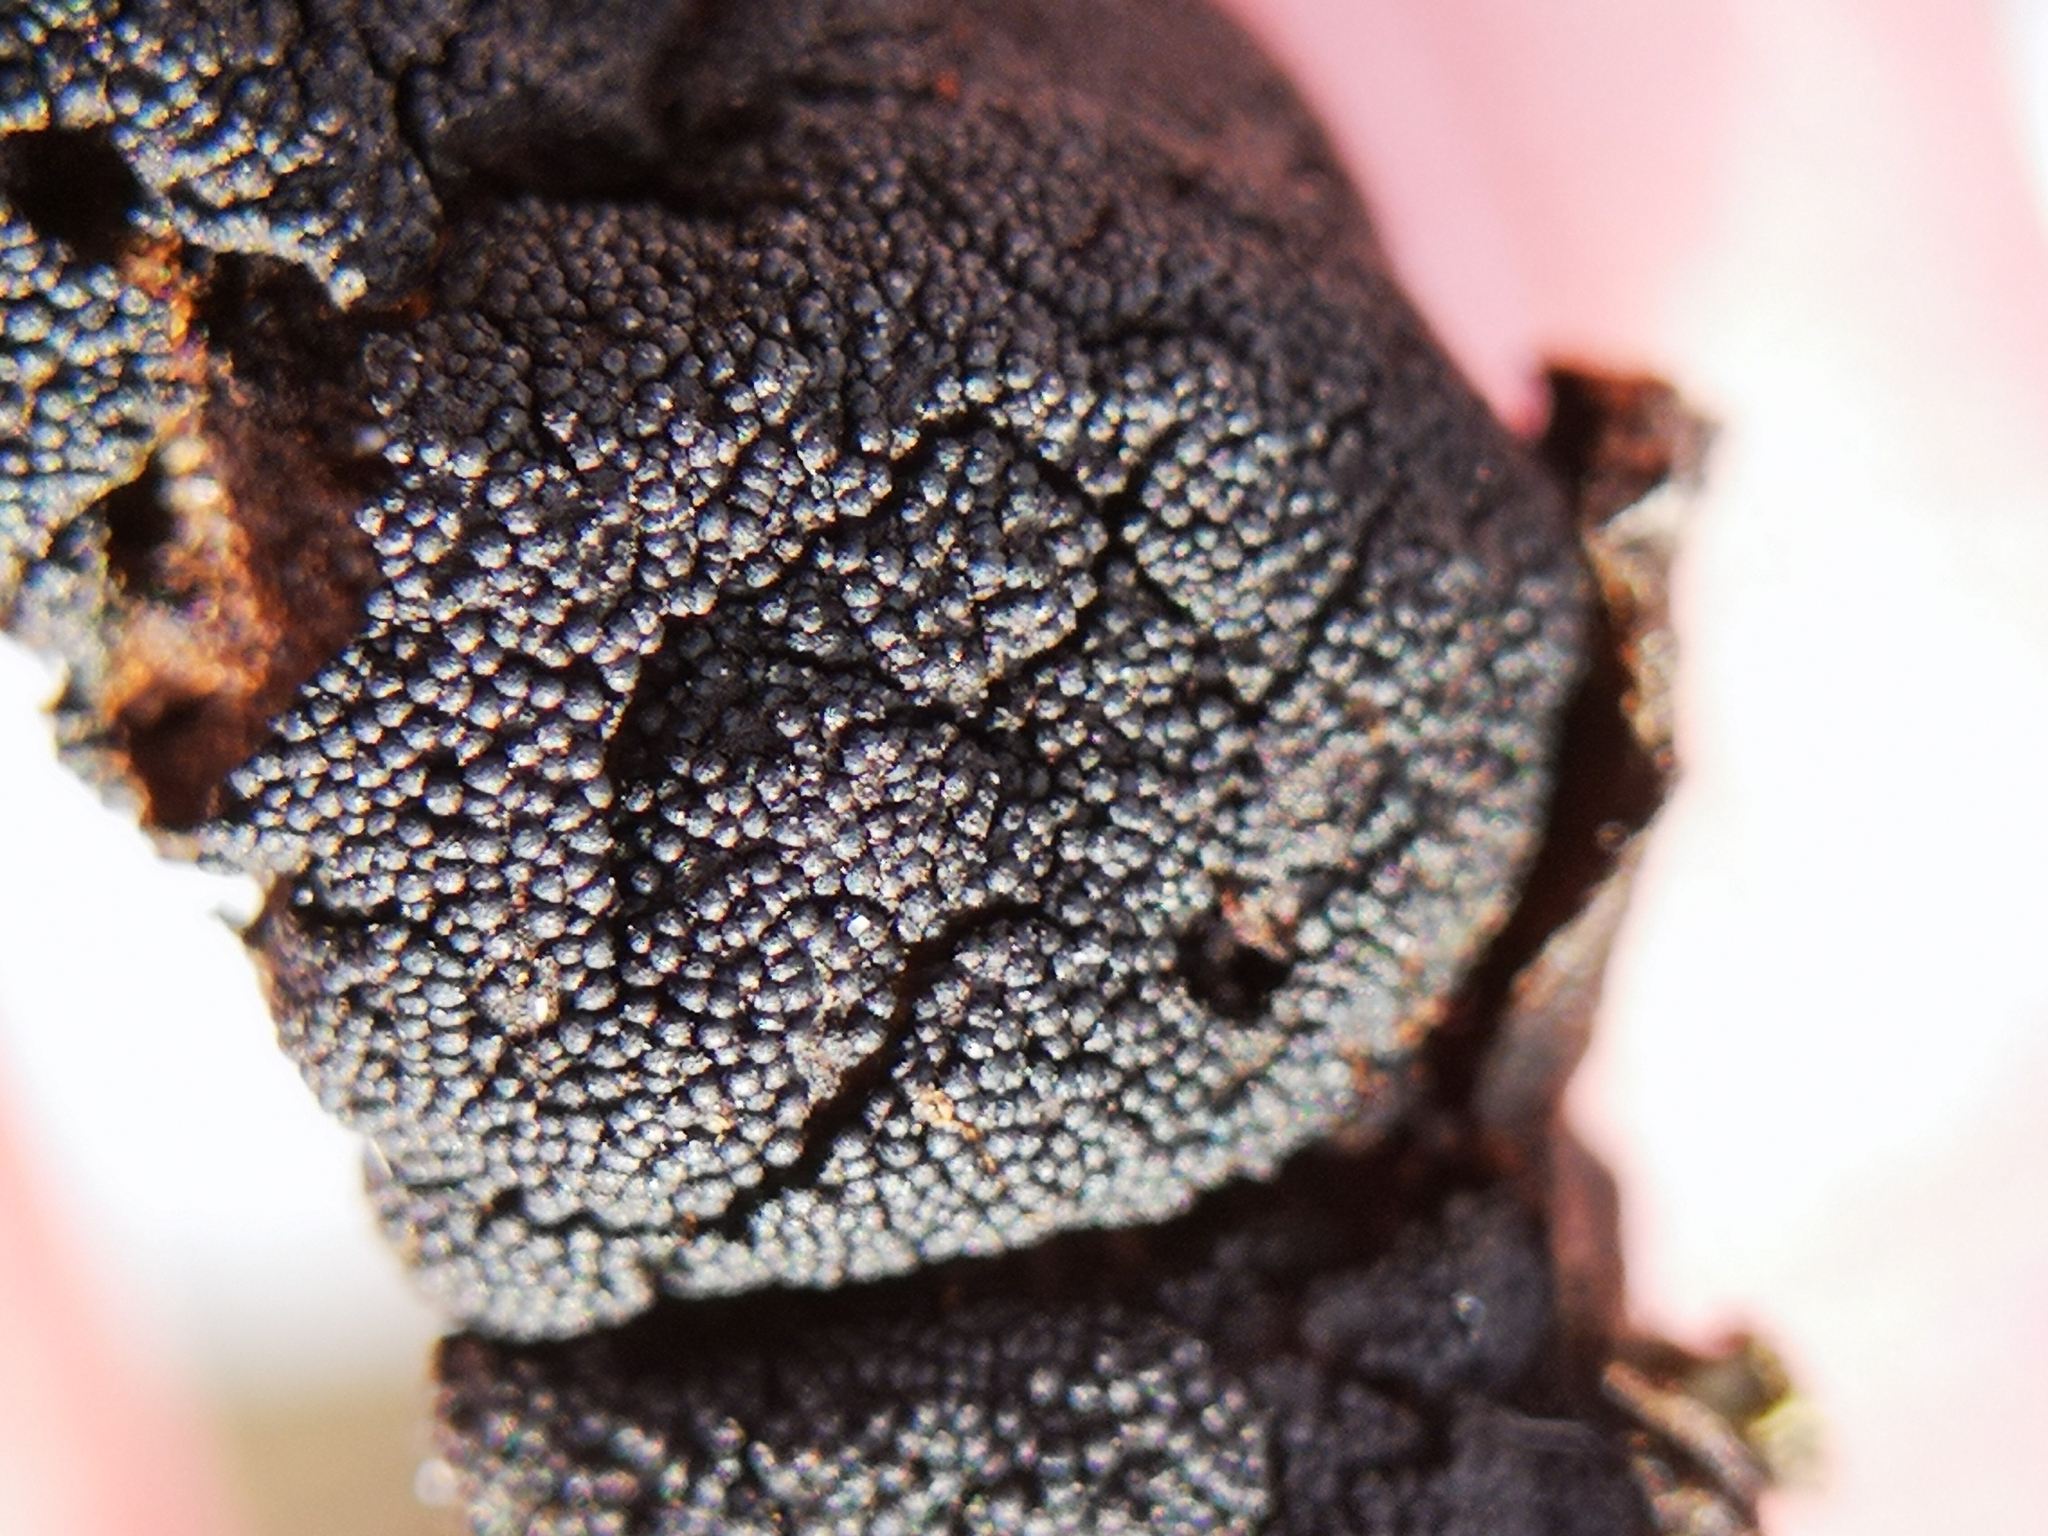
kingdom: Fungi
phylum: Ascomycota
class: Dothideomycetes
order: Venturiales
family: Venturiaceae
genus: Apiosporina
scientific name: Apiosporina morbosa
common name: Black knot
